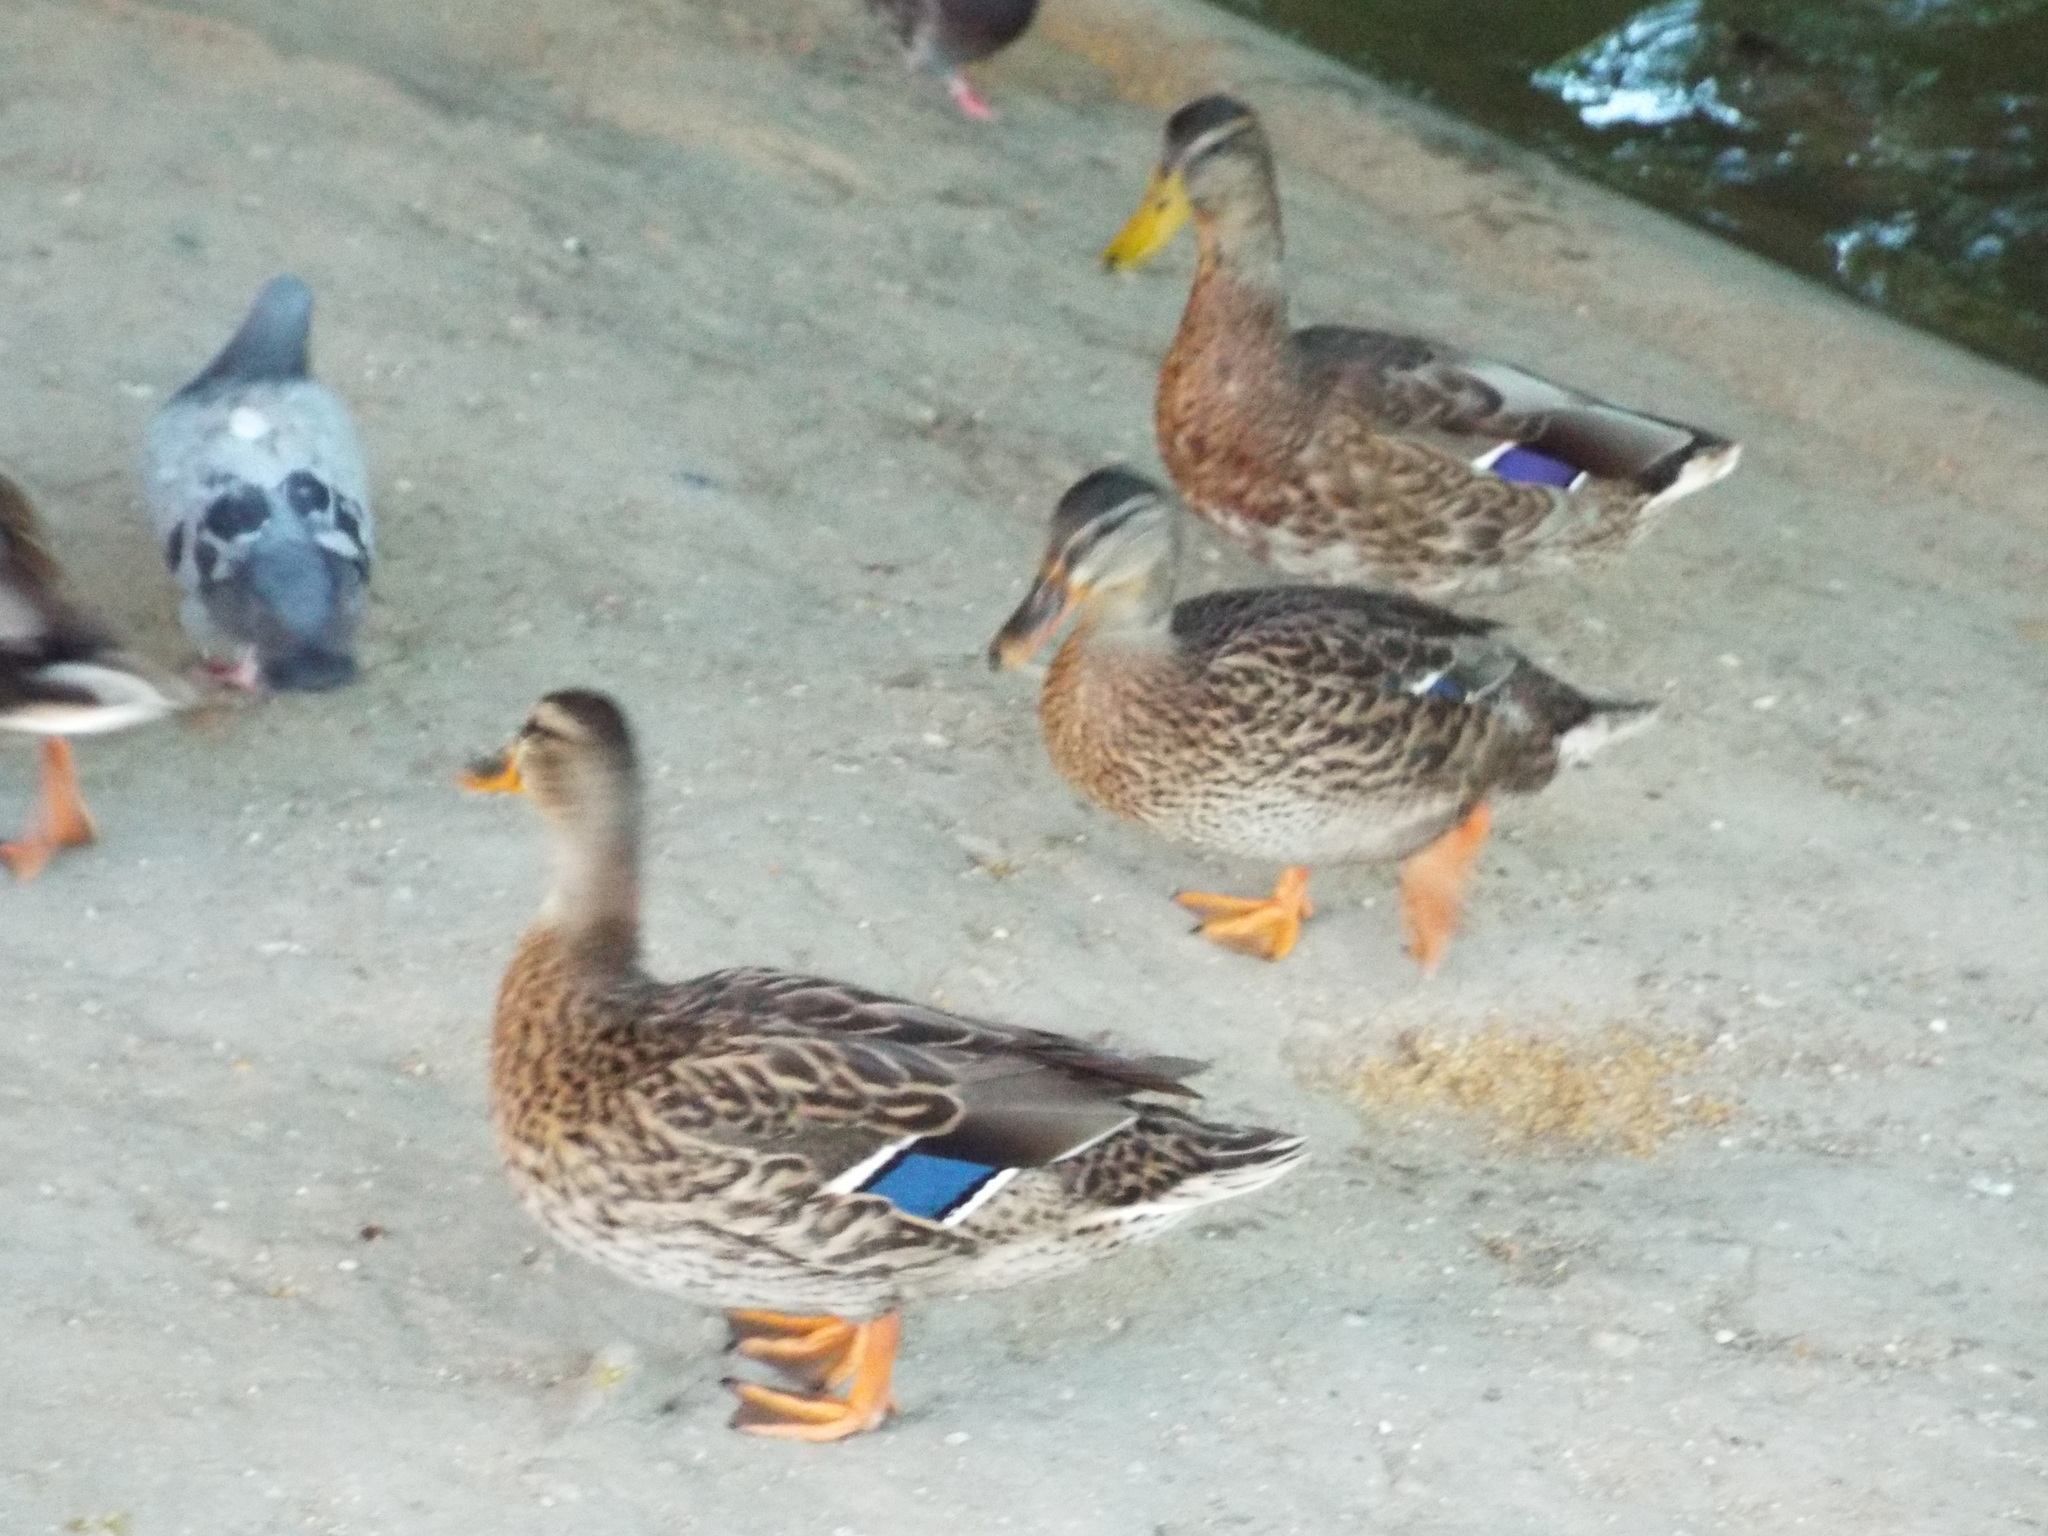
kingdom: Animalia
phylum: Chordata
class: Aves
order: Anseriformes
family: Anatidae
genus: Anas
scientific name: Anas platyrhynchos
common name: Mallard
